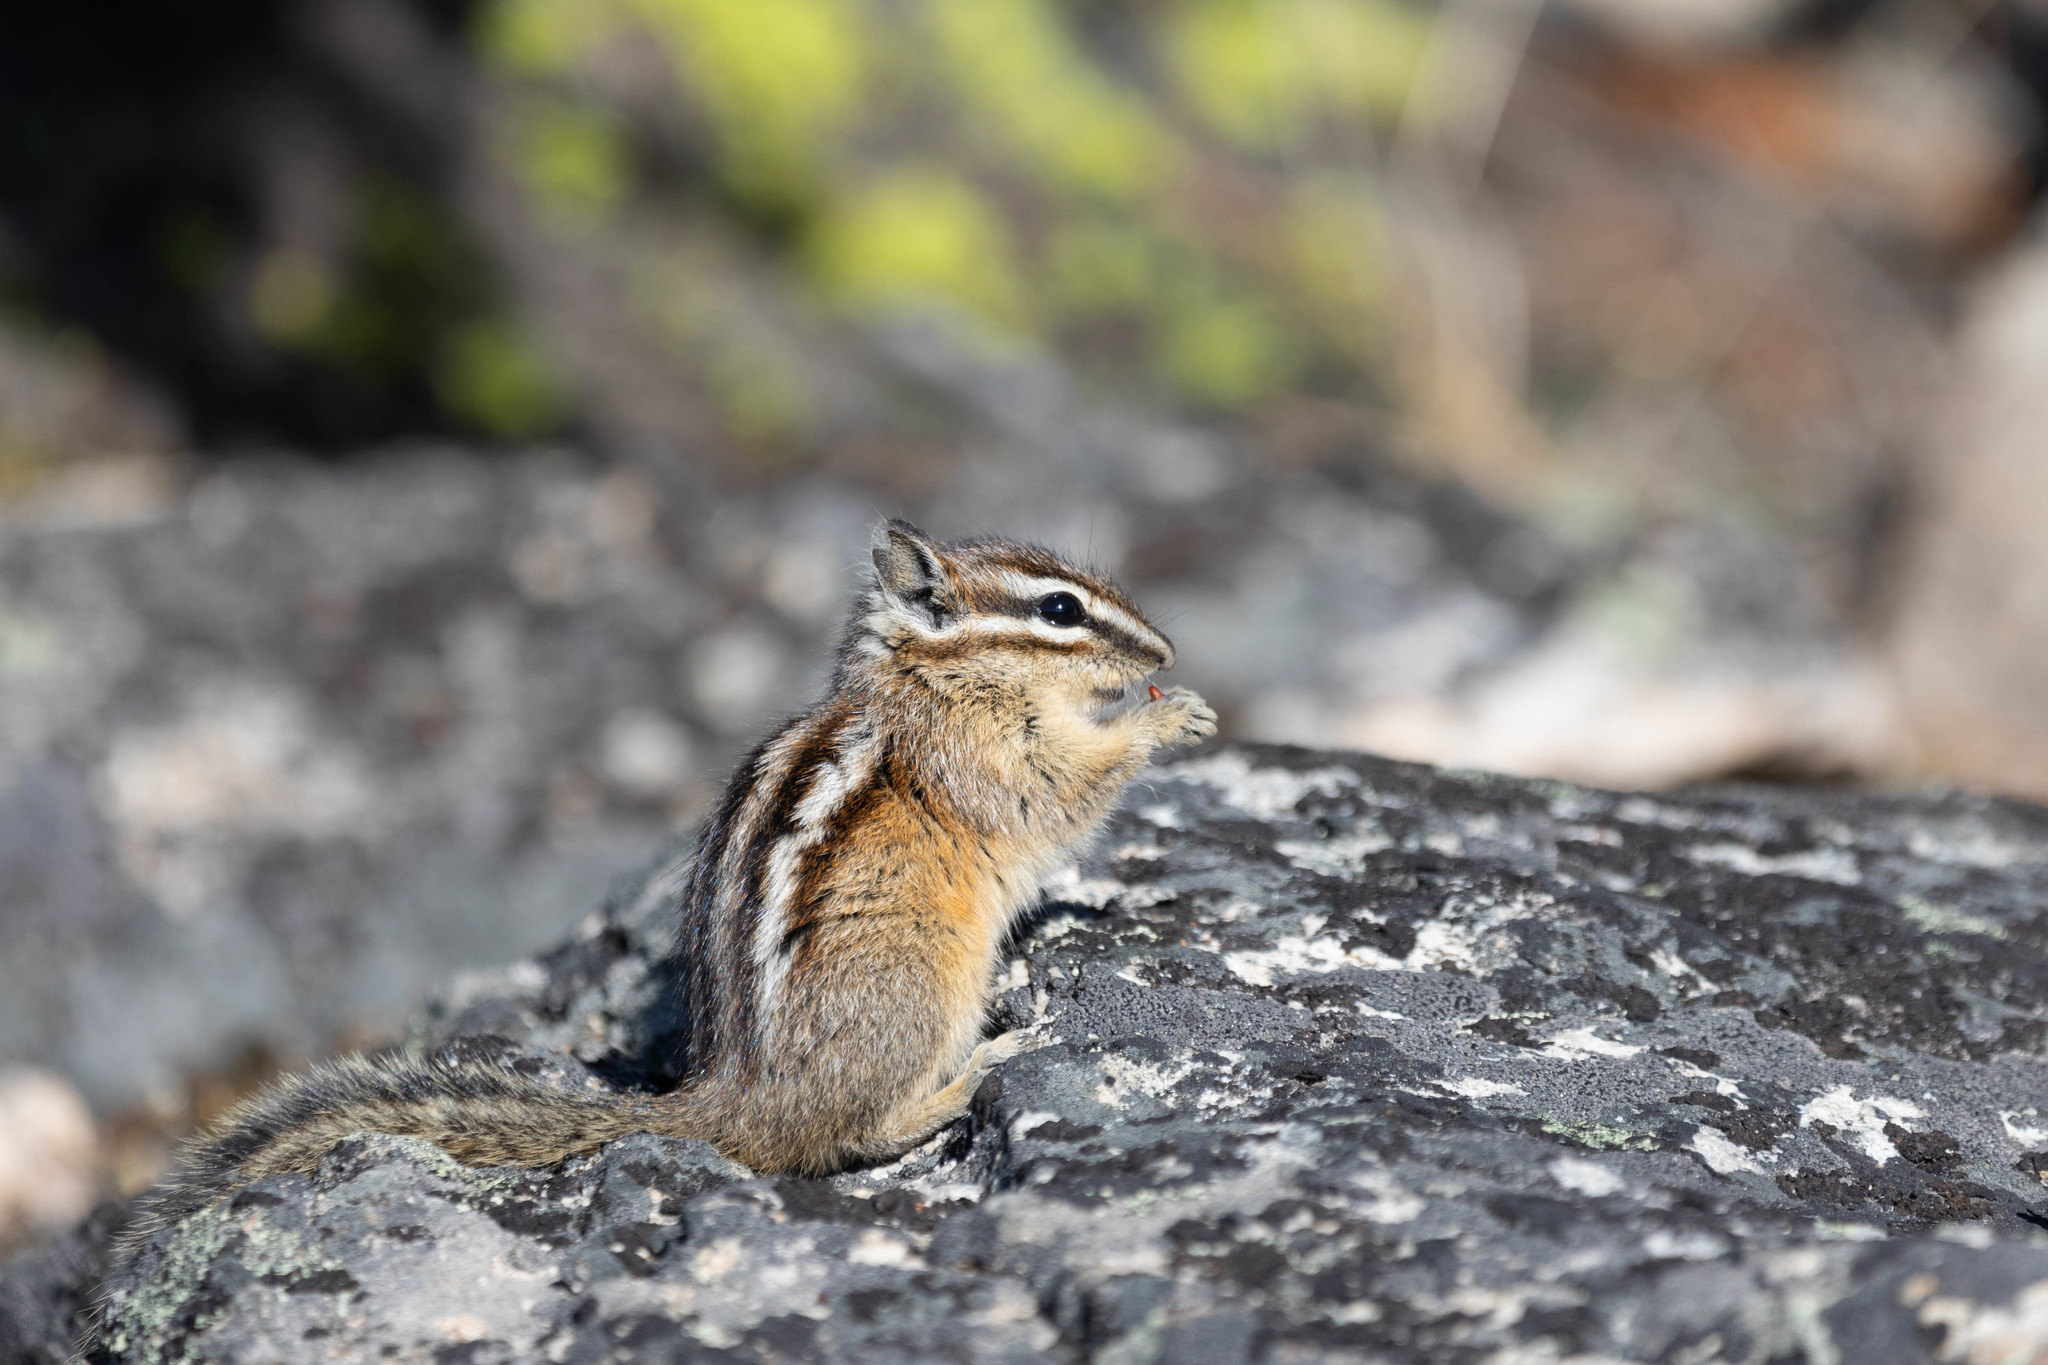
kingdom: Animalia
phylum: Chordata
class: Mammalia
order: Rodentia
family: Sciuridae
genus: Tamias
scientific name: Tamias amoenus
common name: Yellow-pine chipmunk
